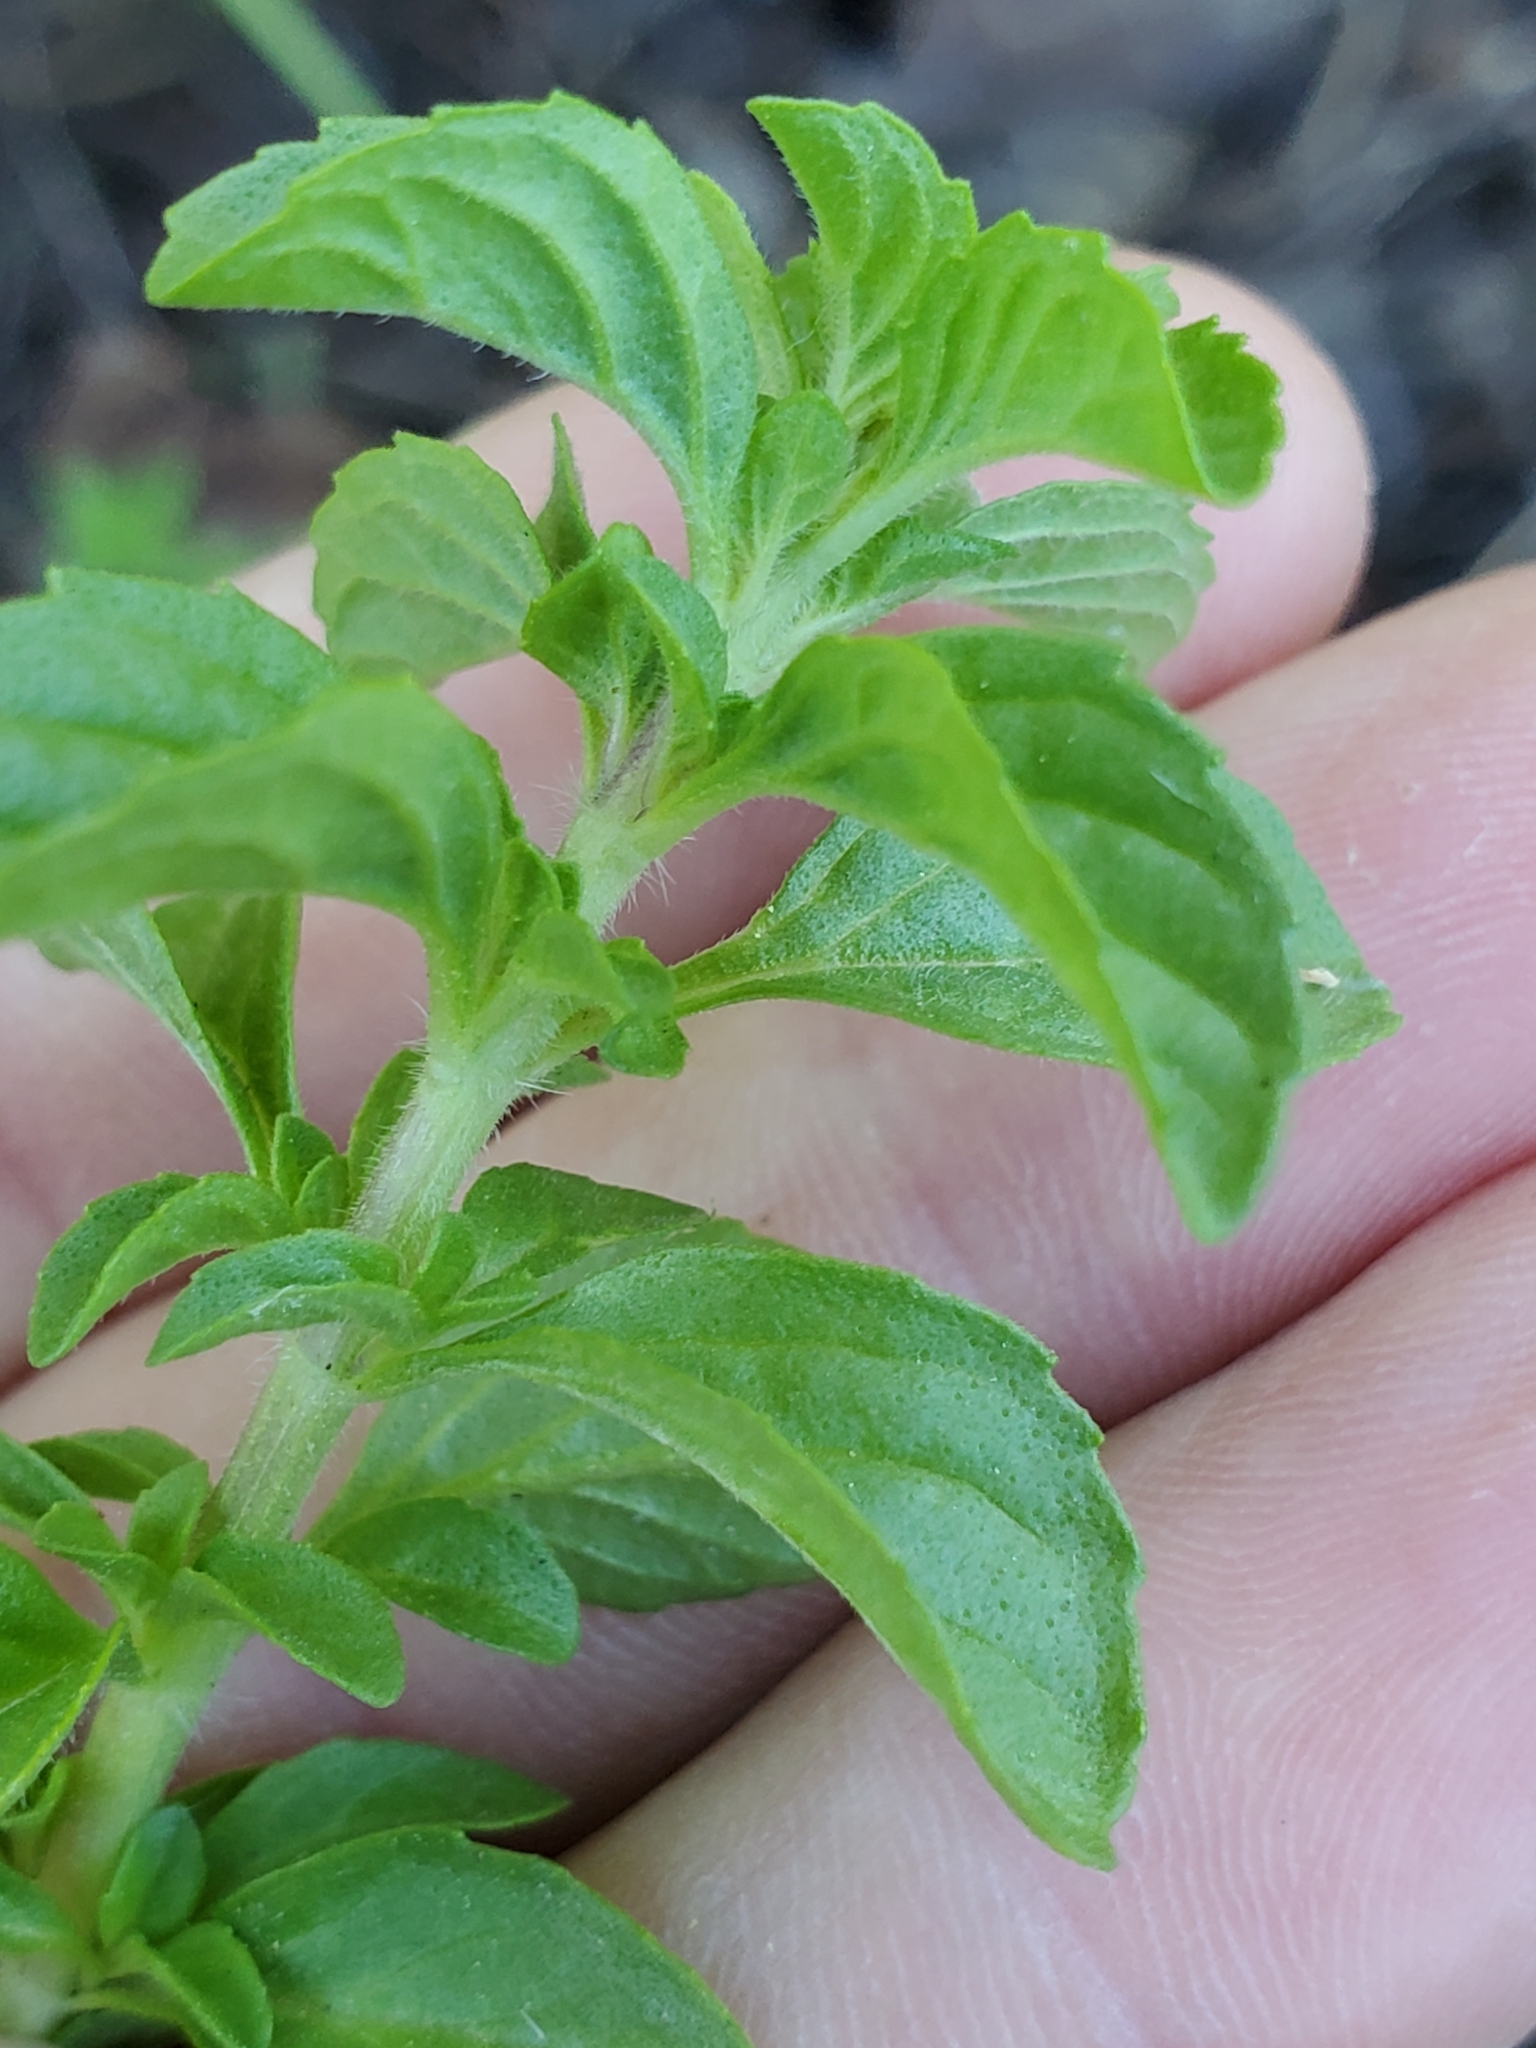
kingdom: Plantae
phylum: Tracheophyta
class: Magnoliopsida
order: Lamiales
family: Lamiaceae
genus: Mentha
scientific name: Mentha pulegium
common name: Pennyroyal
